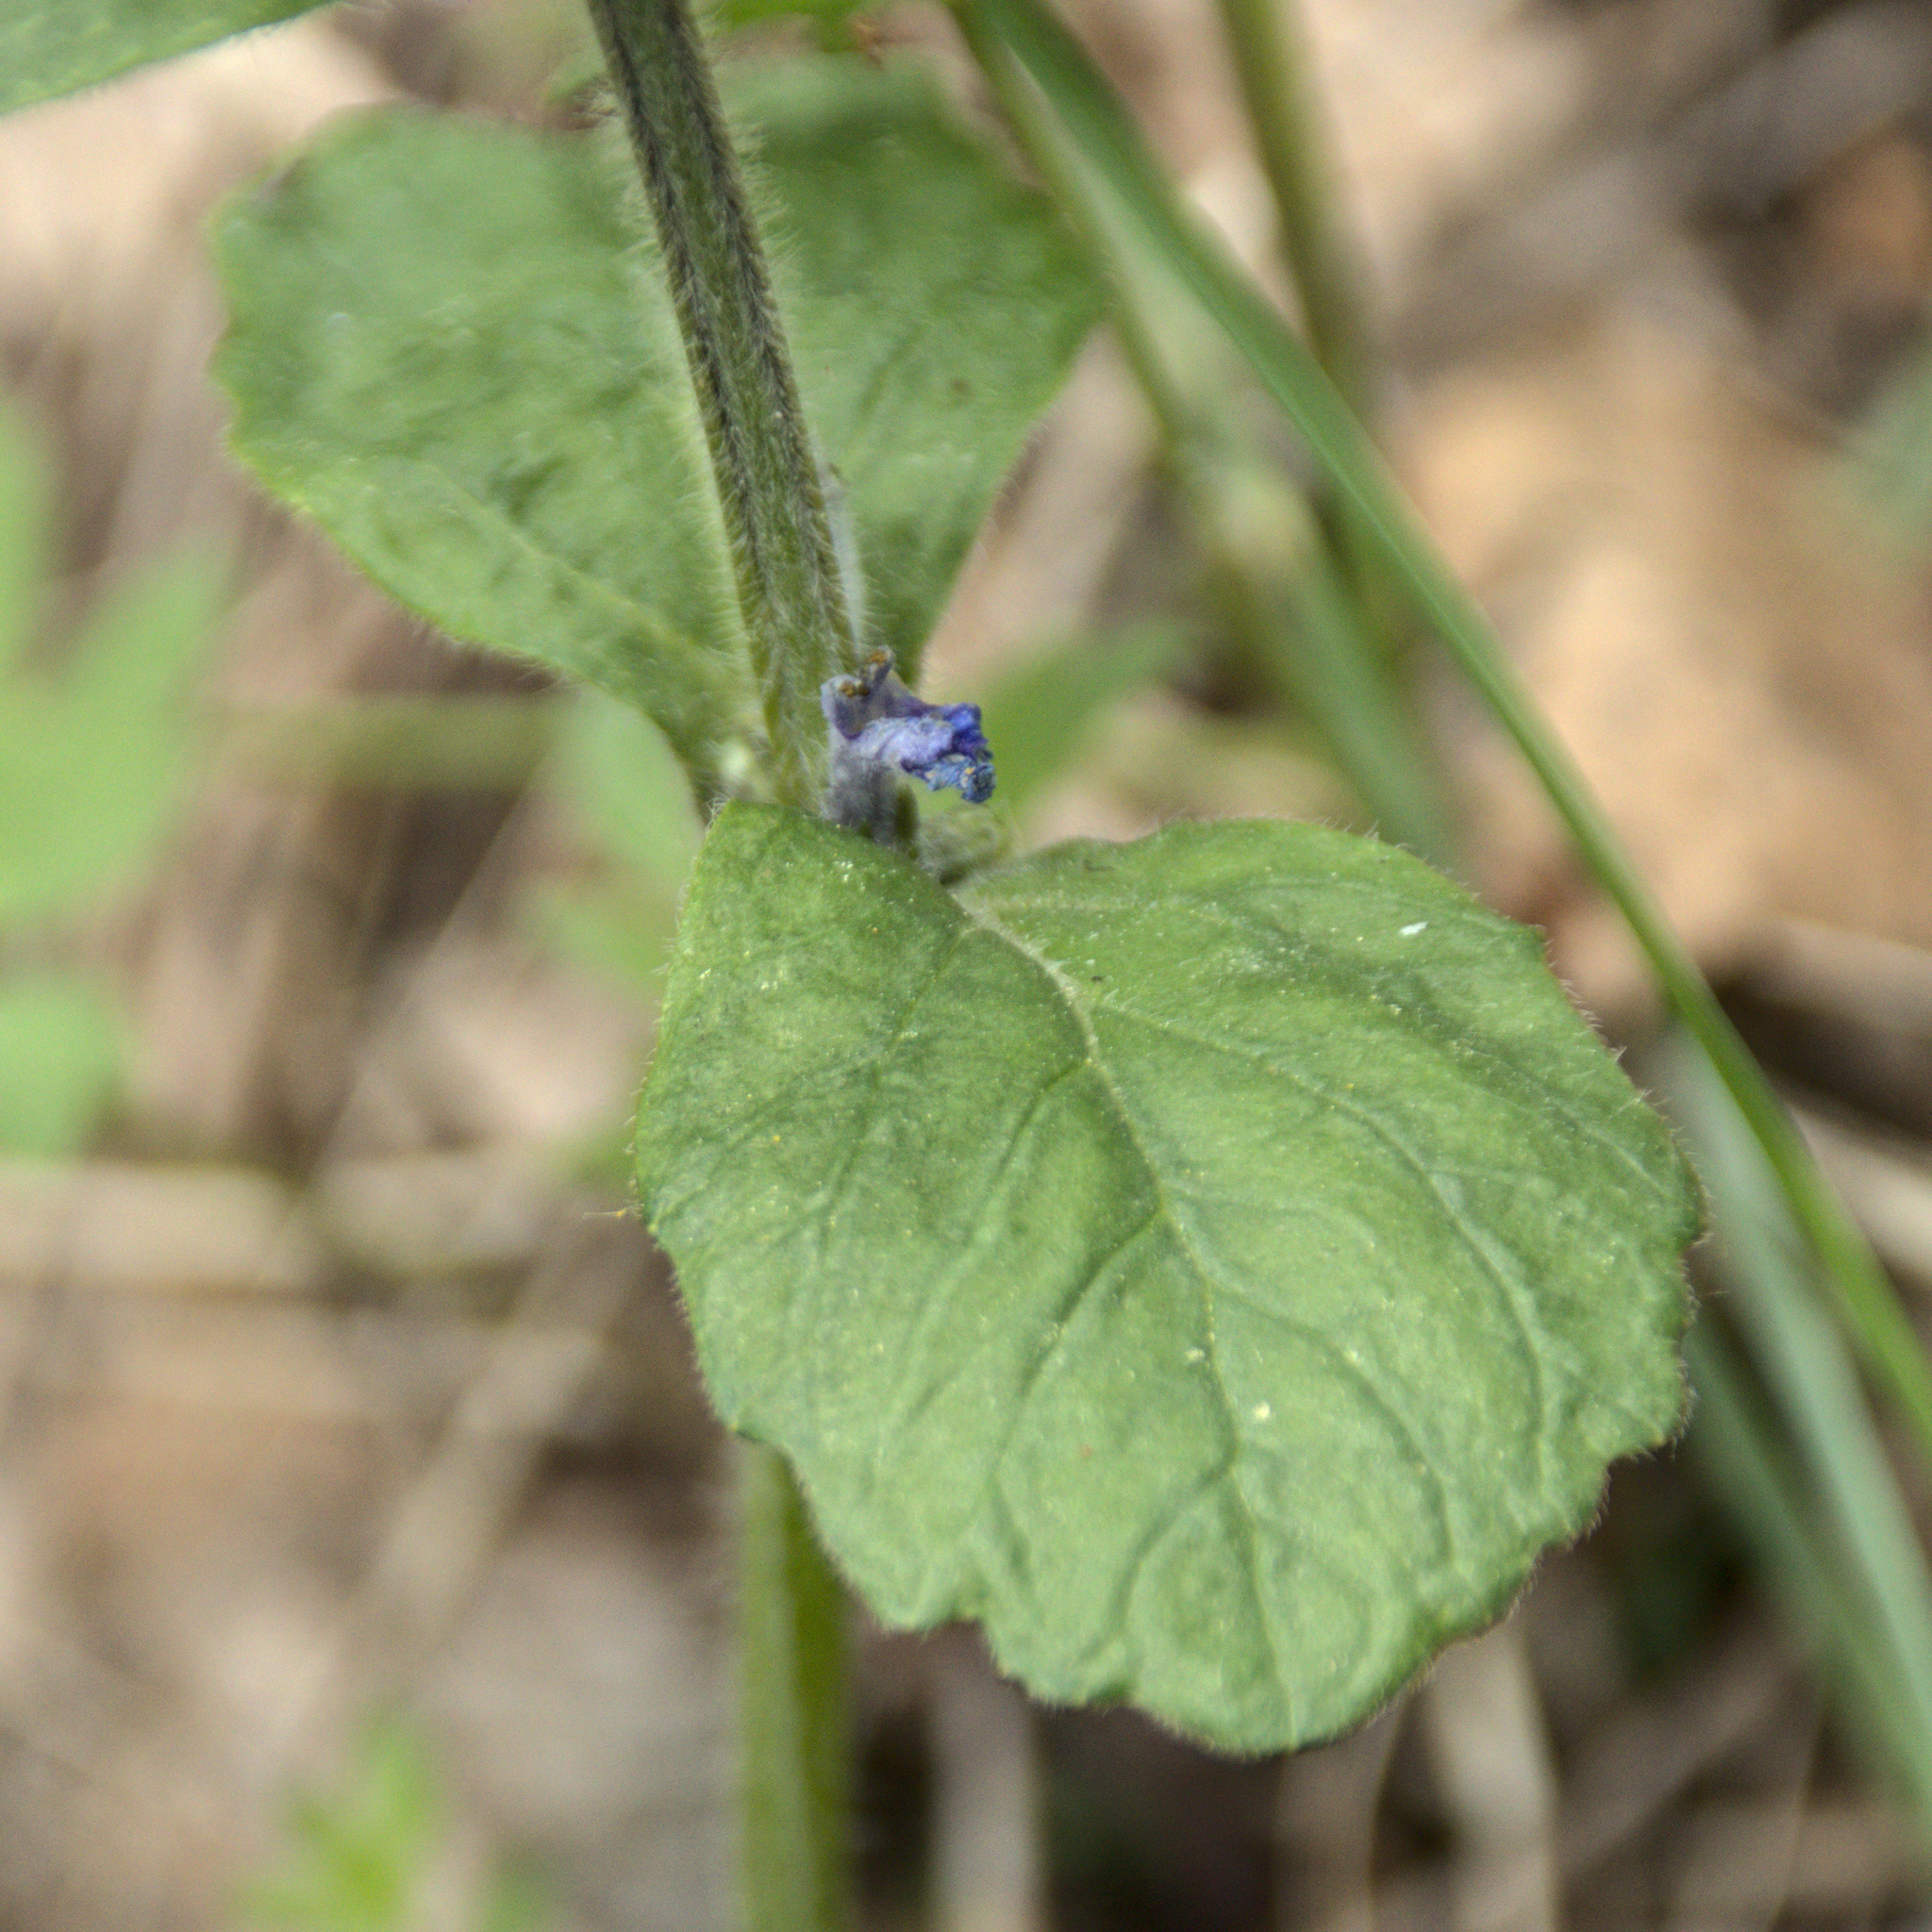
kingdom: Plantae
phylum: Tracheophyta
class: Magnoliopsida
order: Lamiales
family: Lamiaceae
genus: Ajuga
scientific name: Ajuga reptans
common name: Bugle
